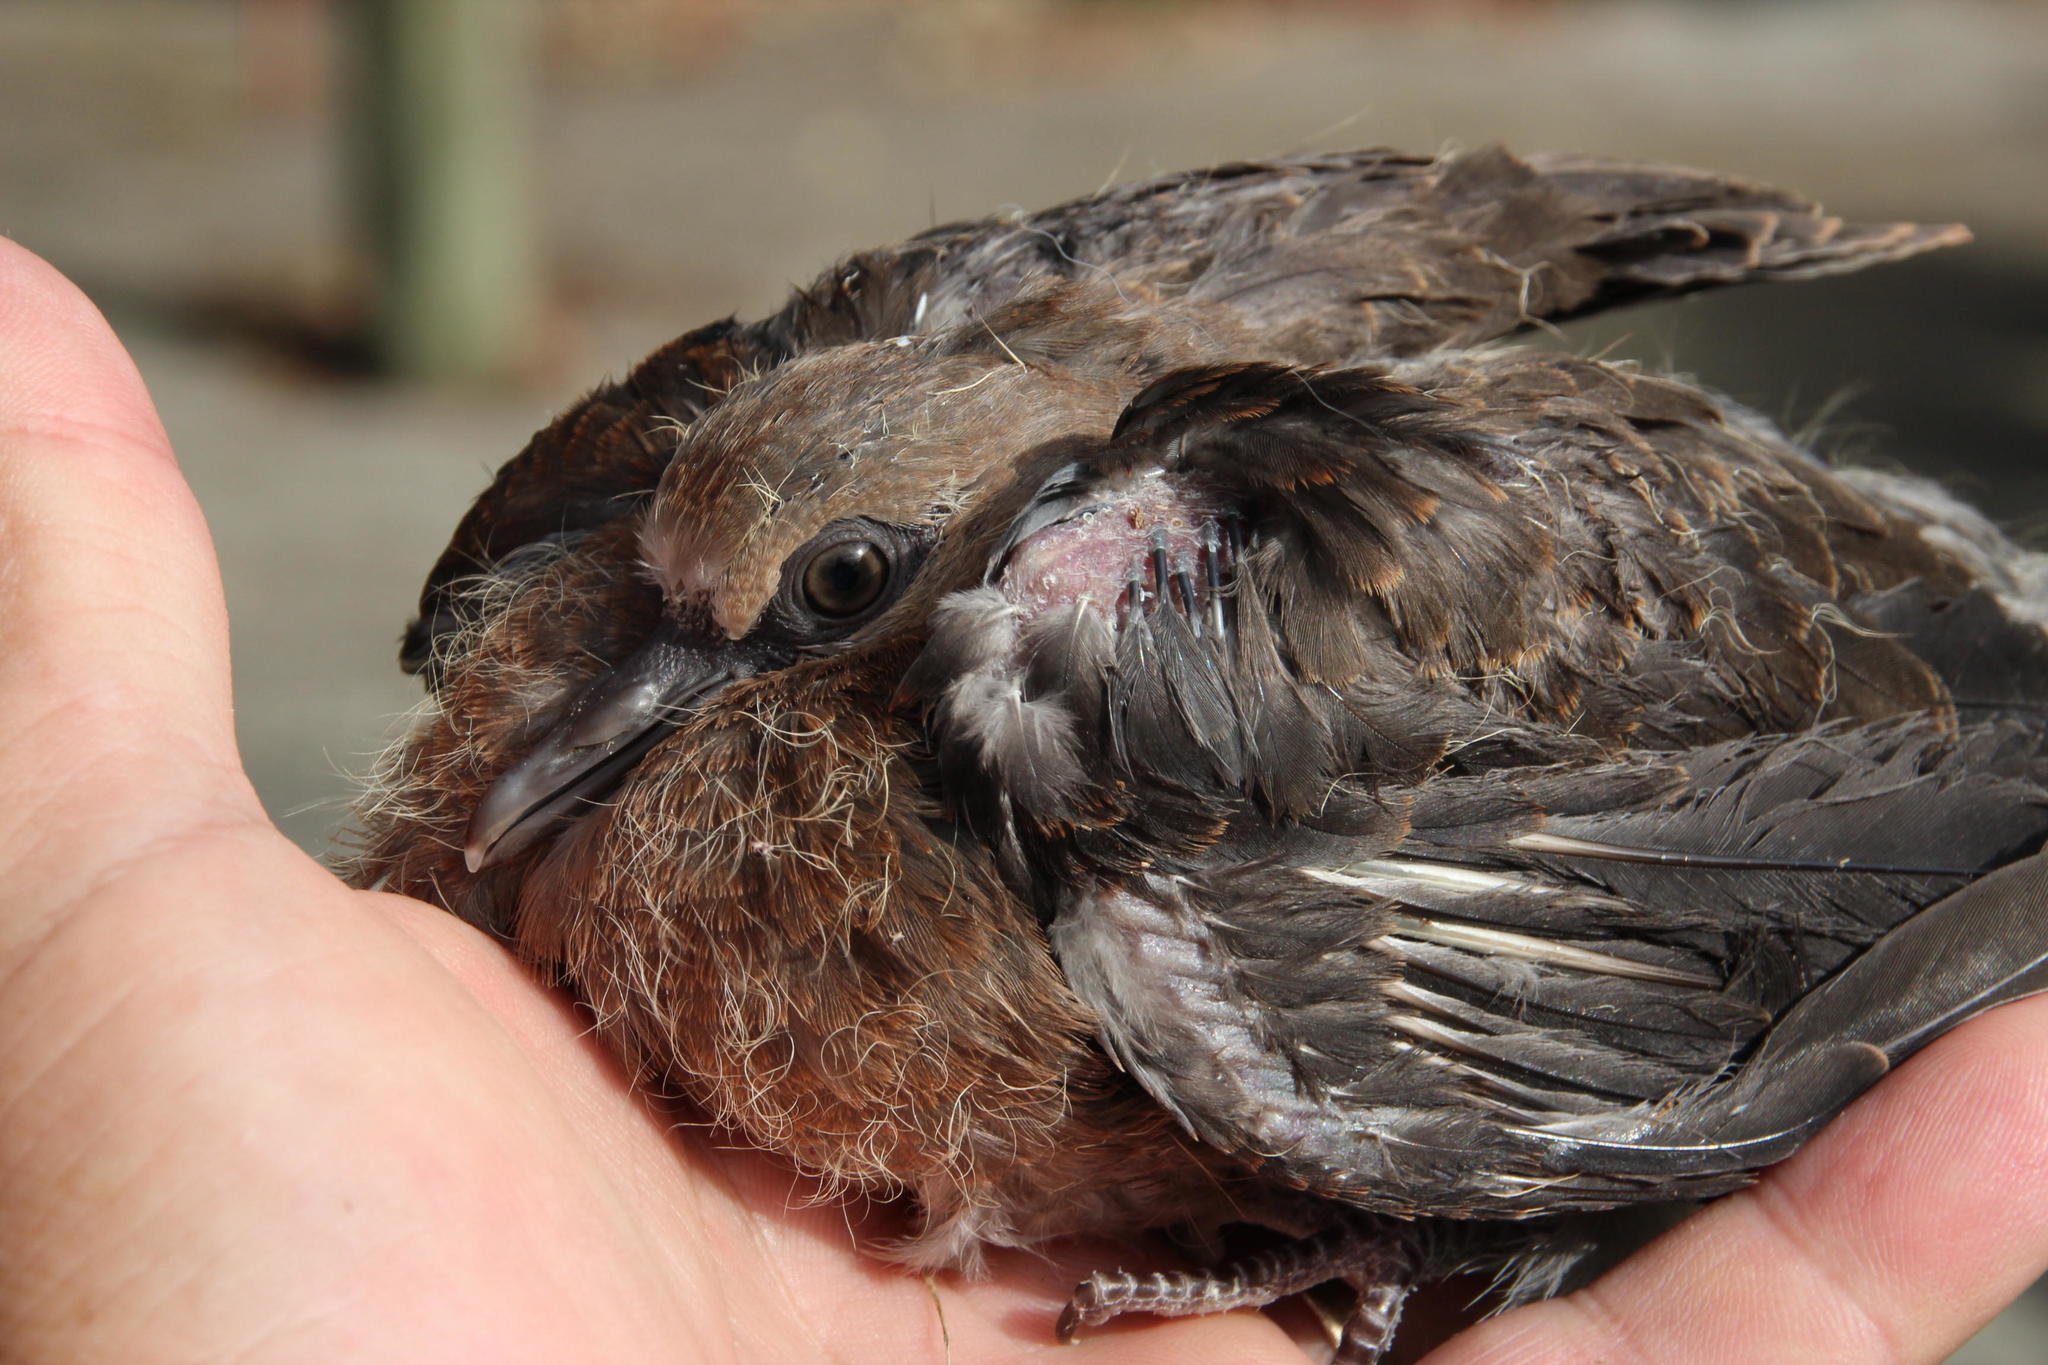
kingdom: Animalia
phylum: Chordata
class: Aves
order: Columbiformes
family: Columbidae
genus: Streptopelia
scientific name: Streptopelia semitorquata
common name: Red-eyed dove
